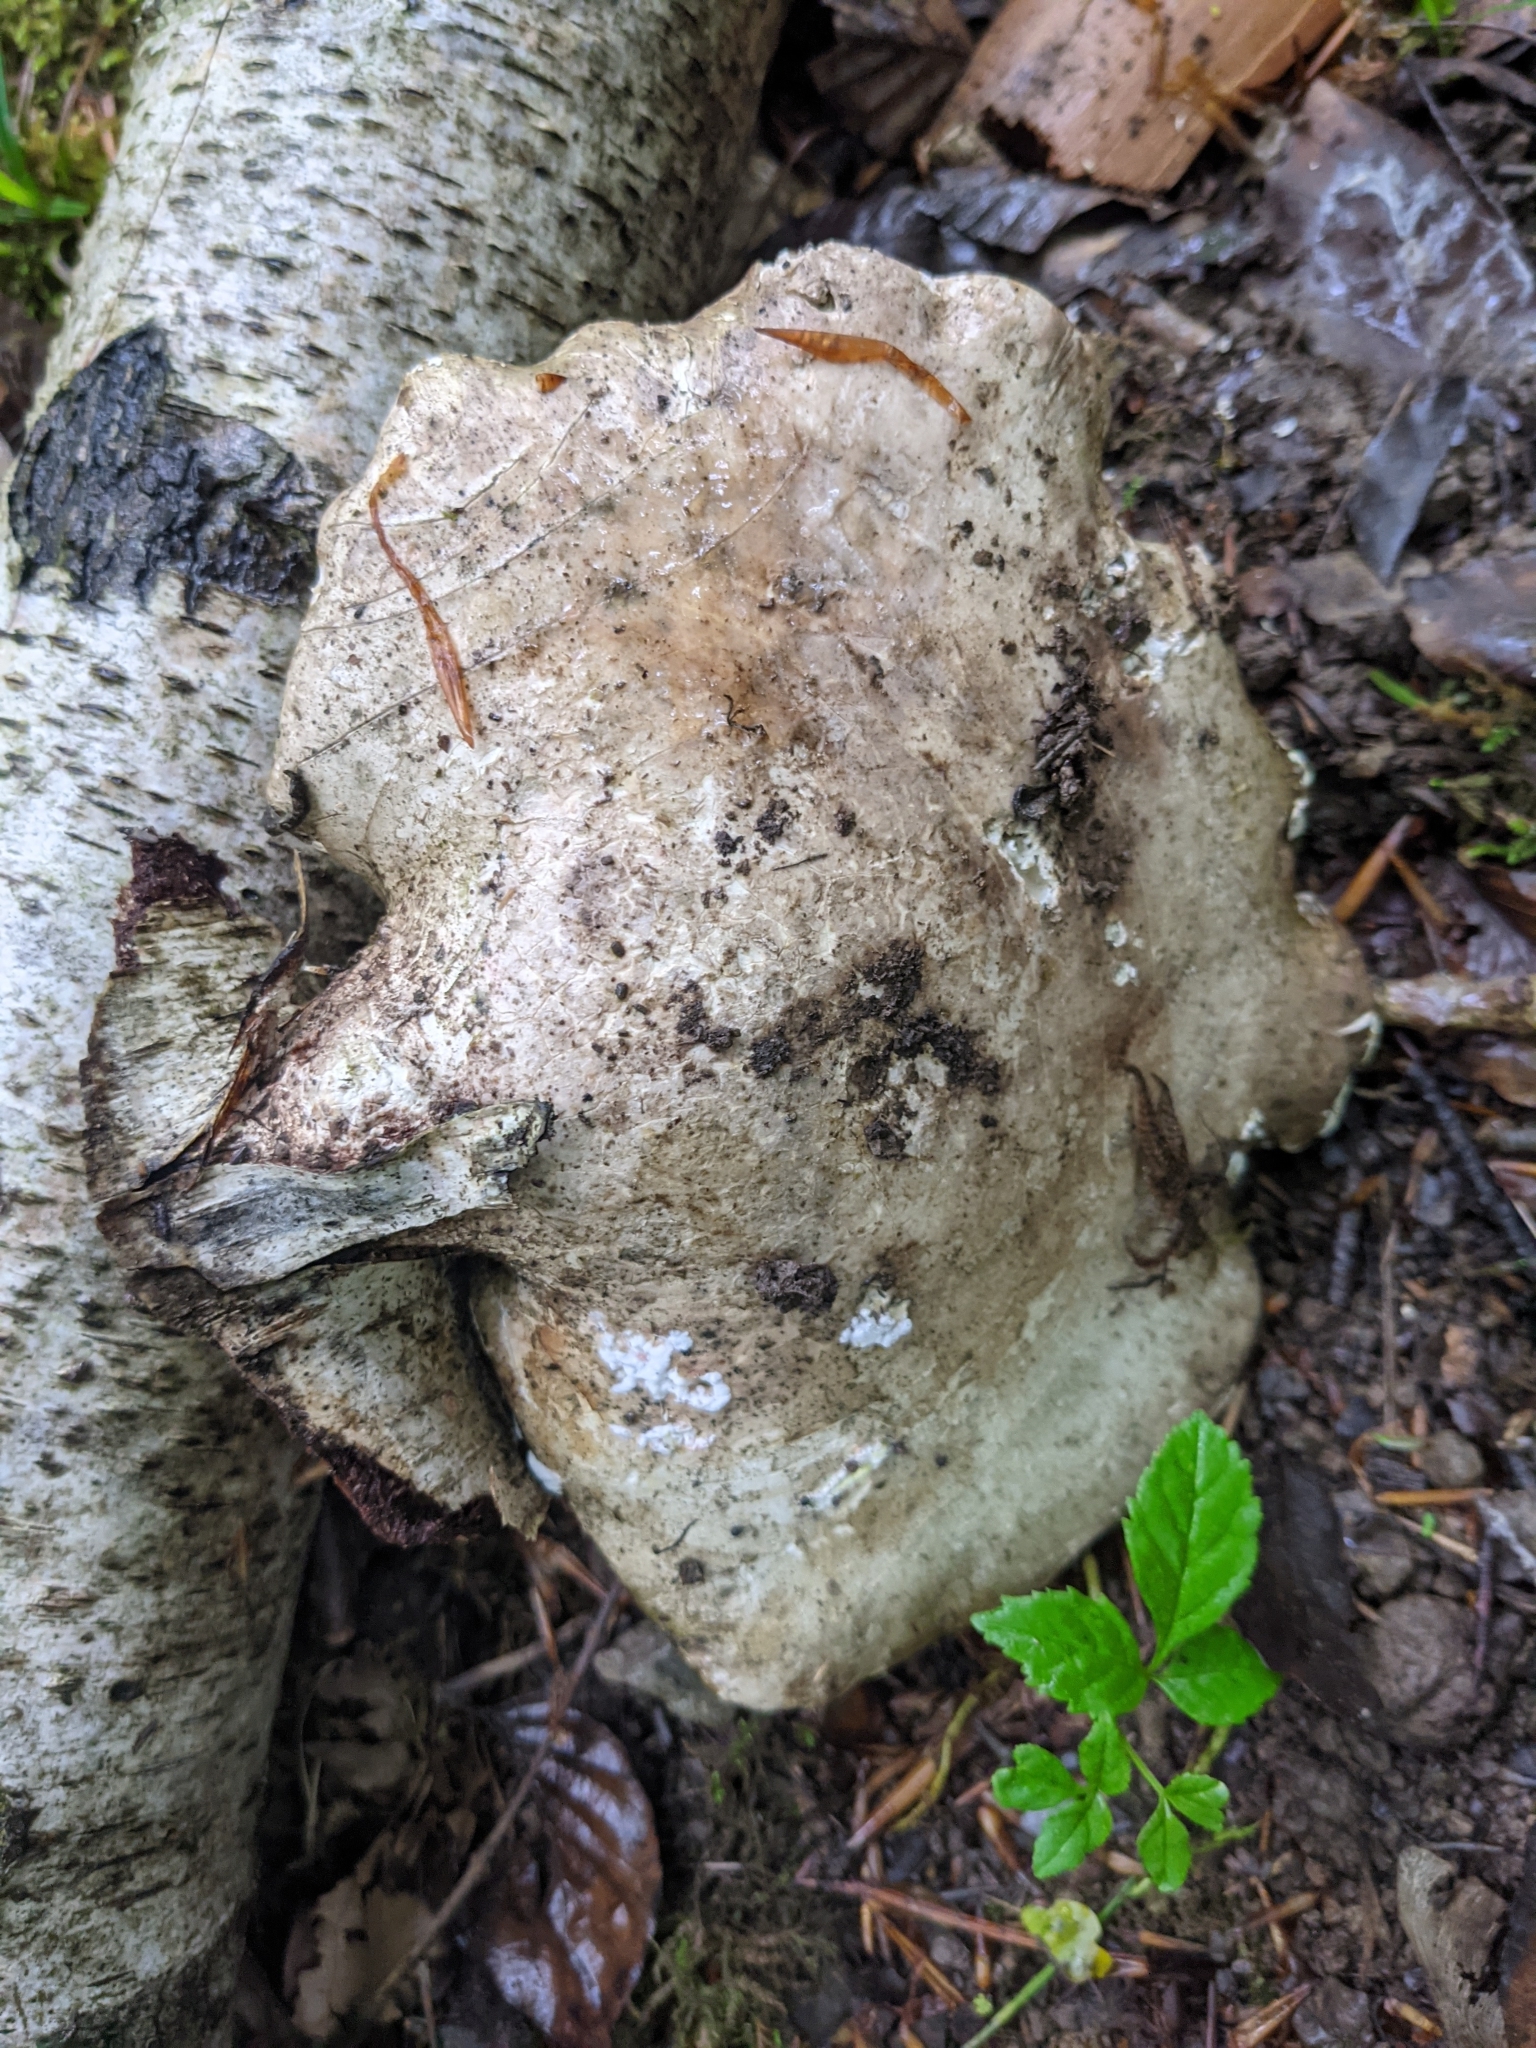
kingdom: Fungi
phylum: Basidiomycota
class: Agaricomycetes
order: Polyporales
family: Fomitopsidaceae
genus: Fomitopsis
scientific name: Fomitopsis betulina
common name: Birch polypore
